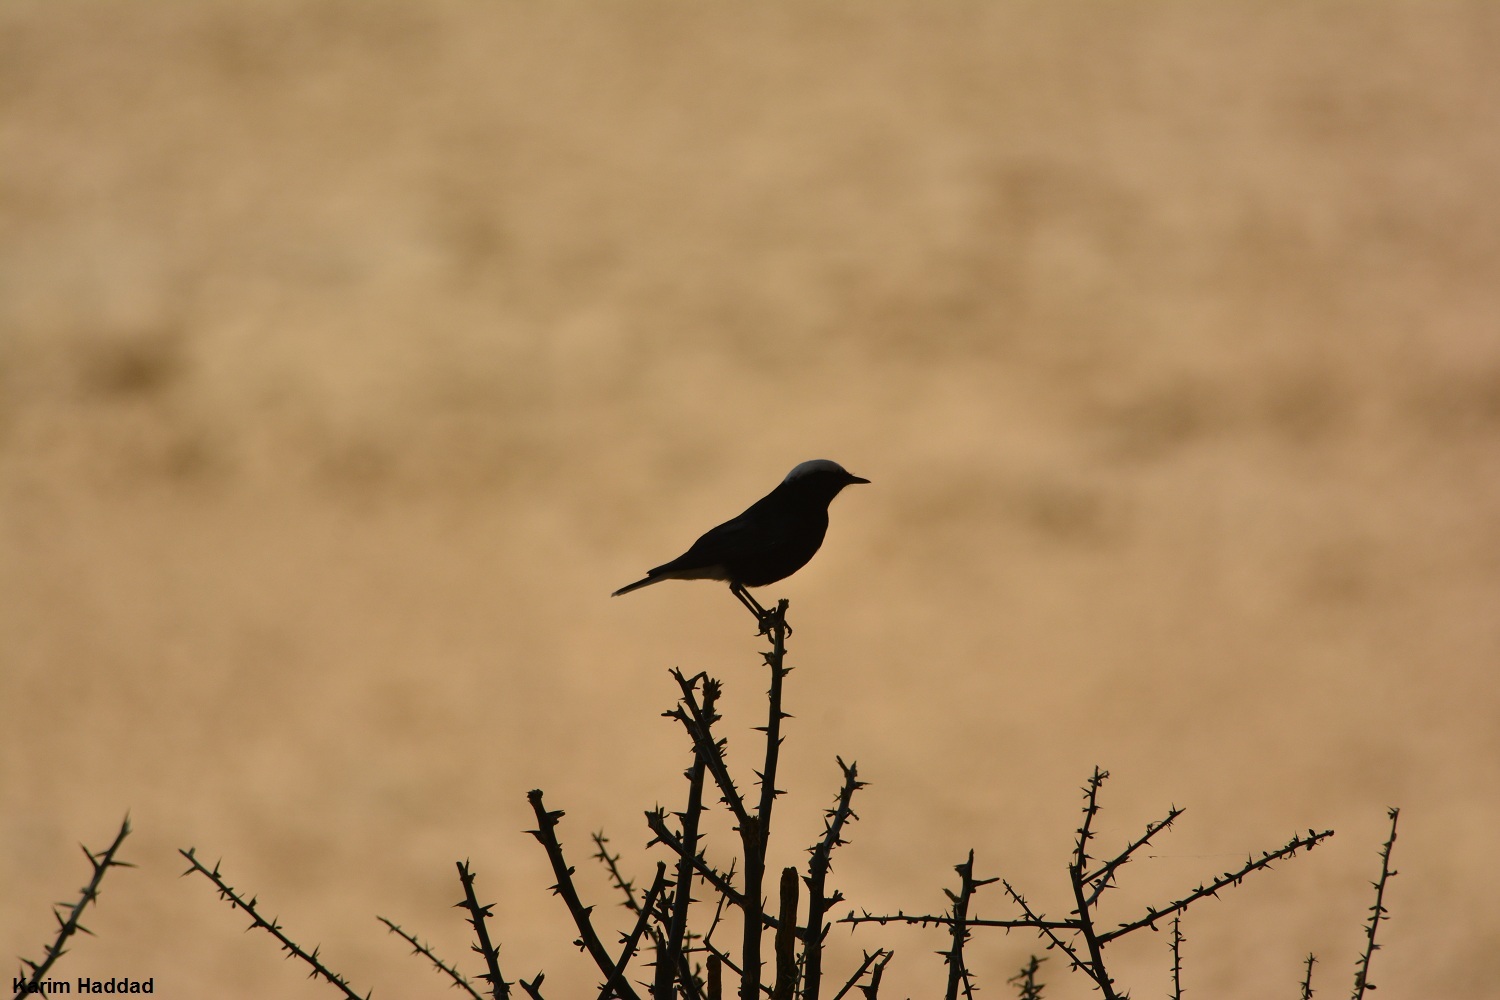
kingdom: Animalia
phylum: Chordata
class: Aves
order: Passeriformes
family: Muscicapidae
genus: Oenanthe
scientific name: Oenanthe leucopyga
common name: White-crowned wheatear
